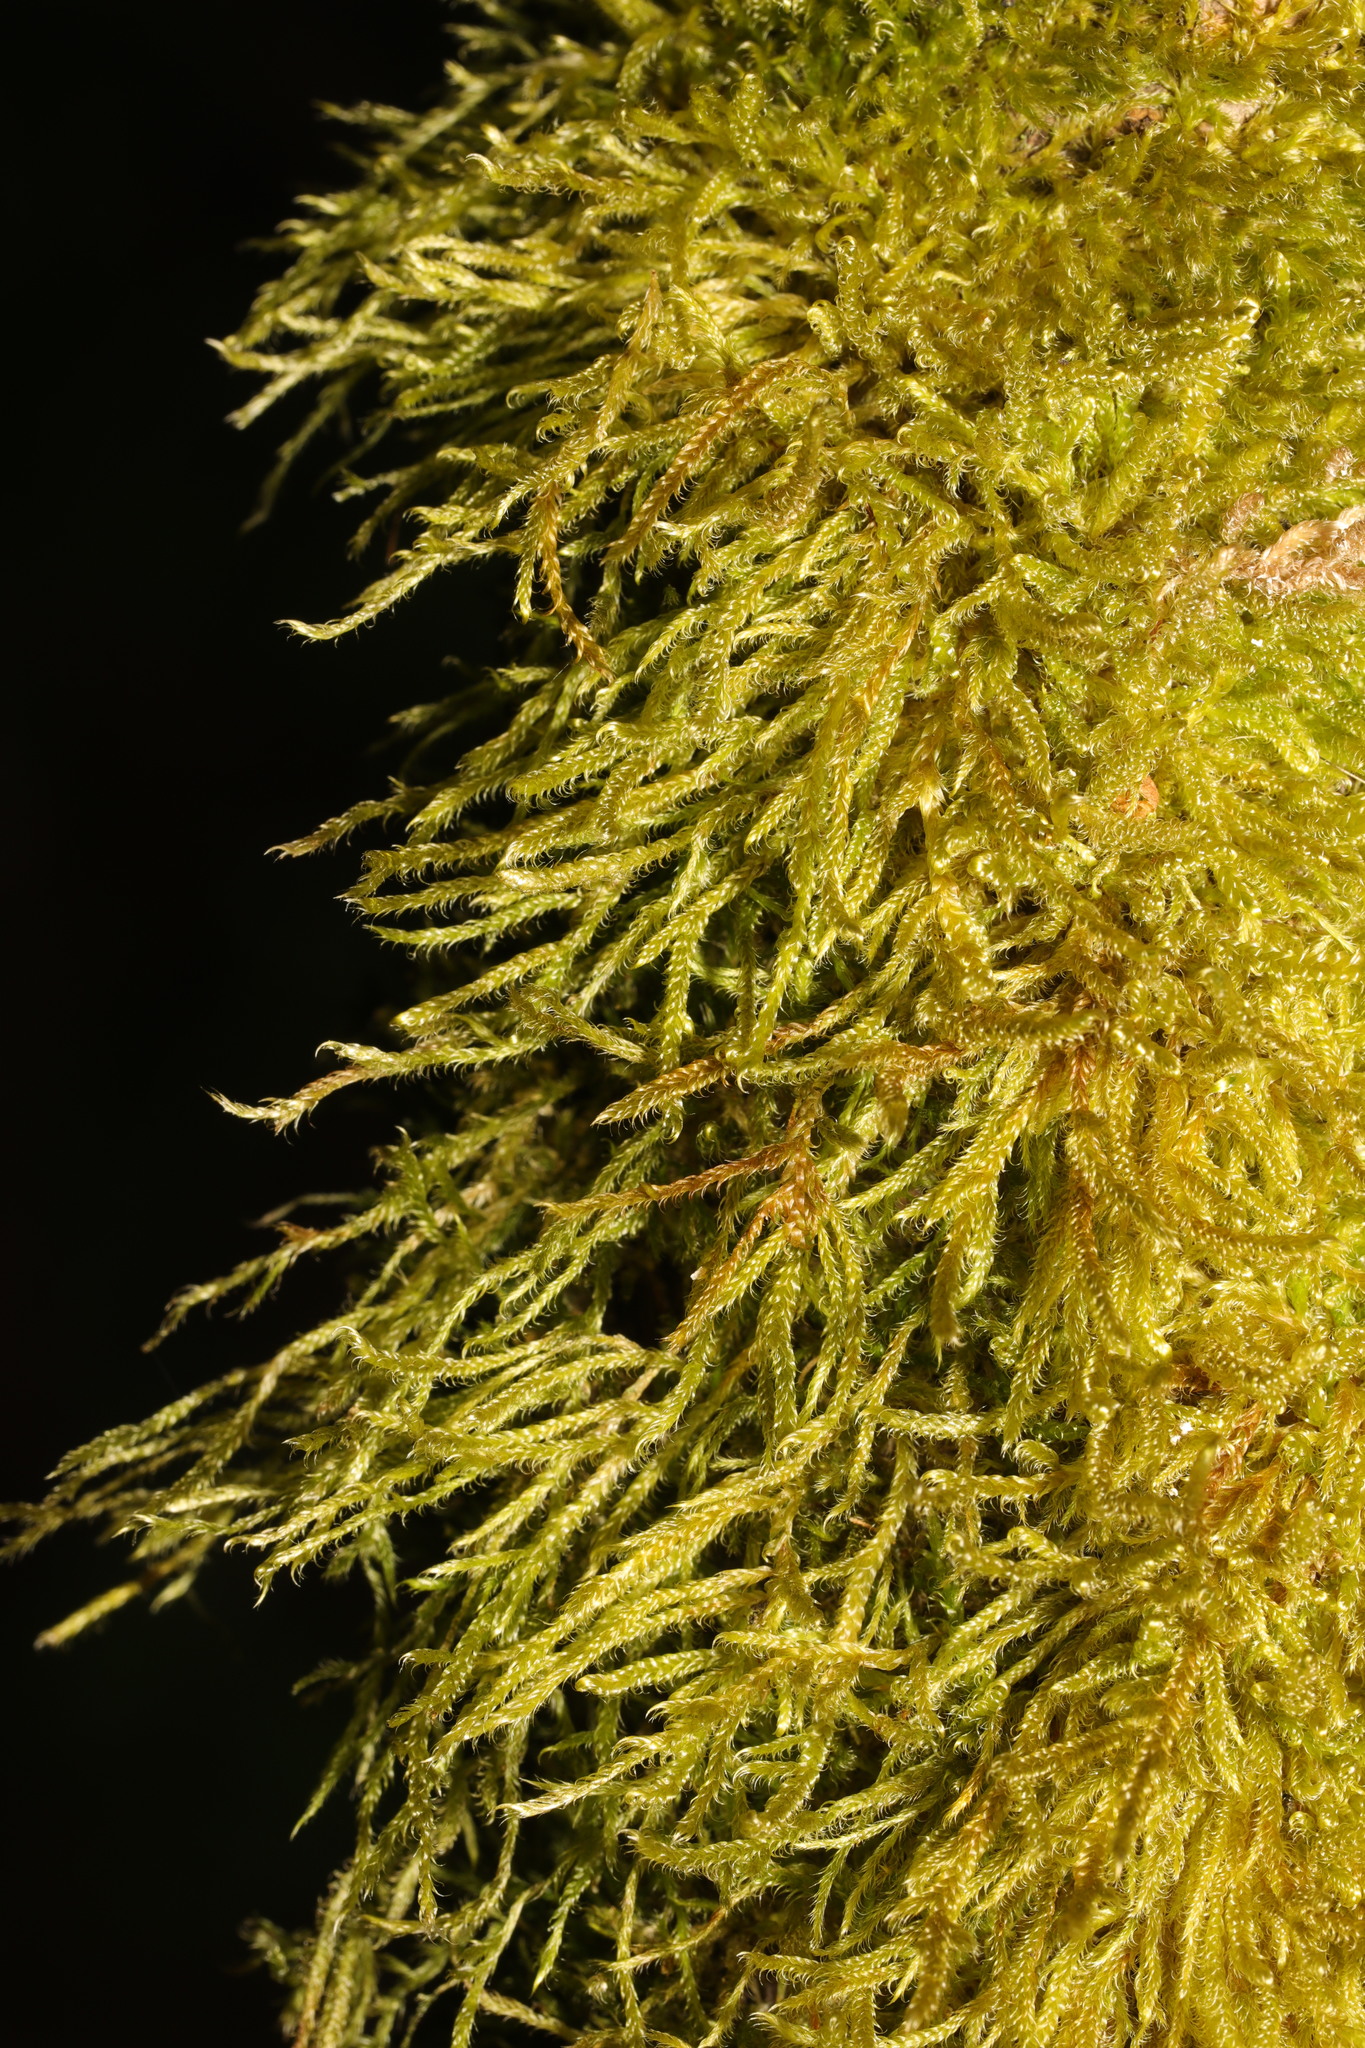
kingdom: Plantae
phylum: Bryophyta
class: Bryopsida
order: Hypnales
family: Hypnaceae
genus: Hypnum
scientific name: Hypnum cupressiforme
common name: Cypress-leaved plait-moss
